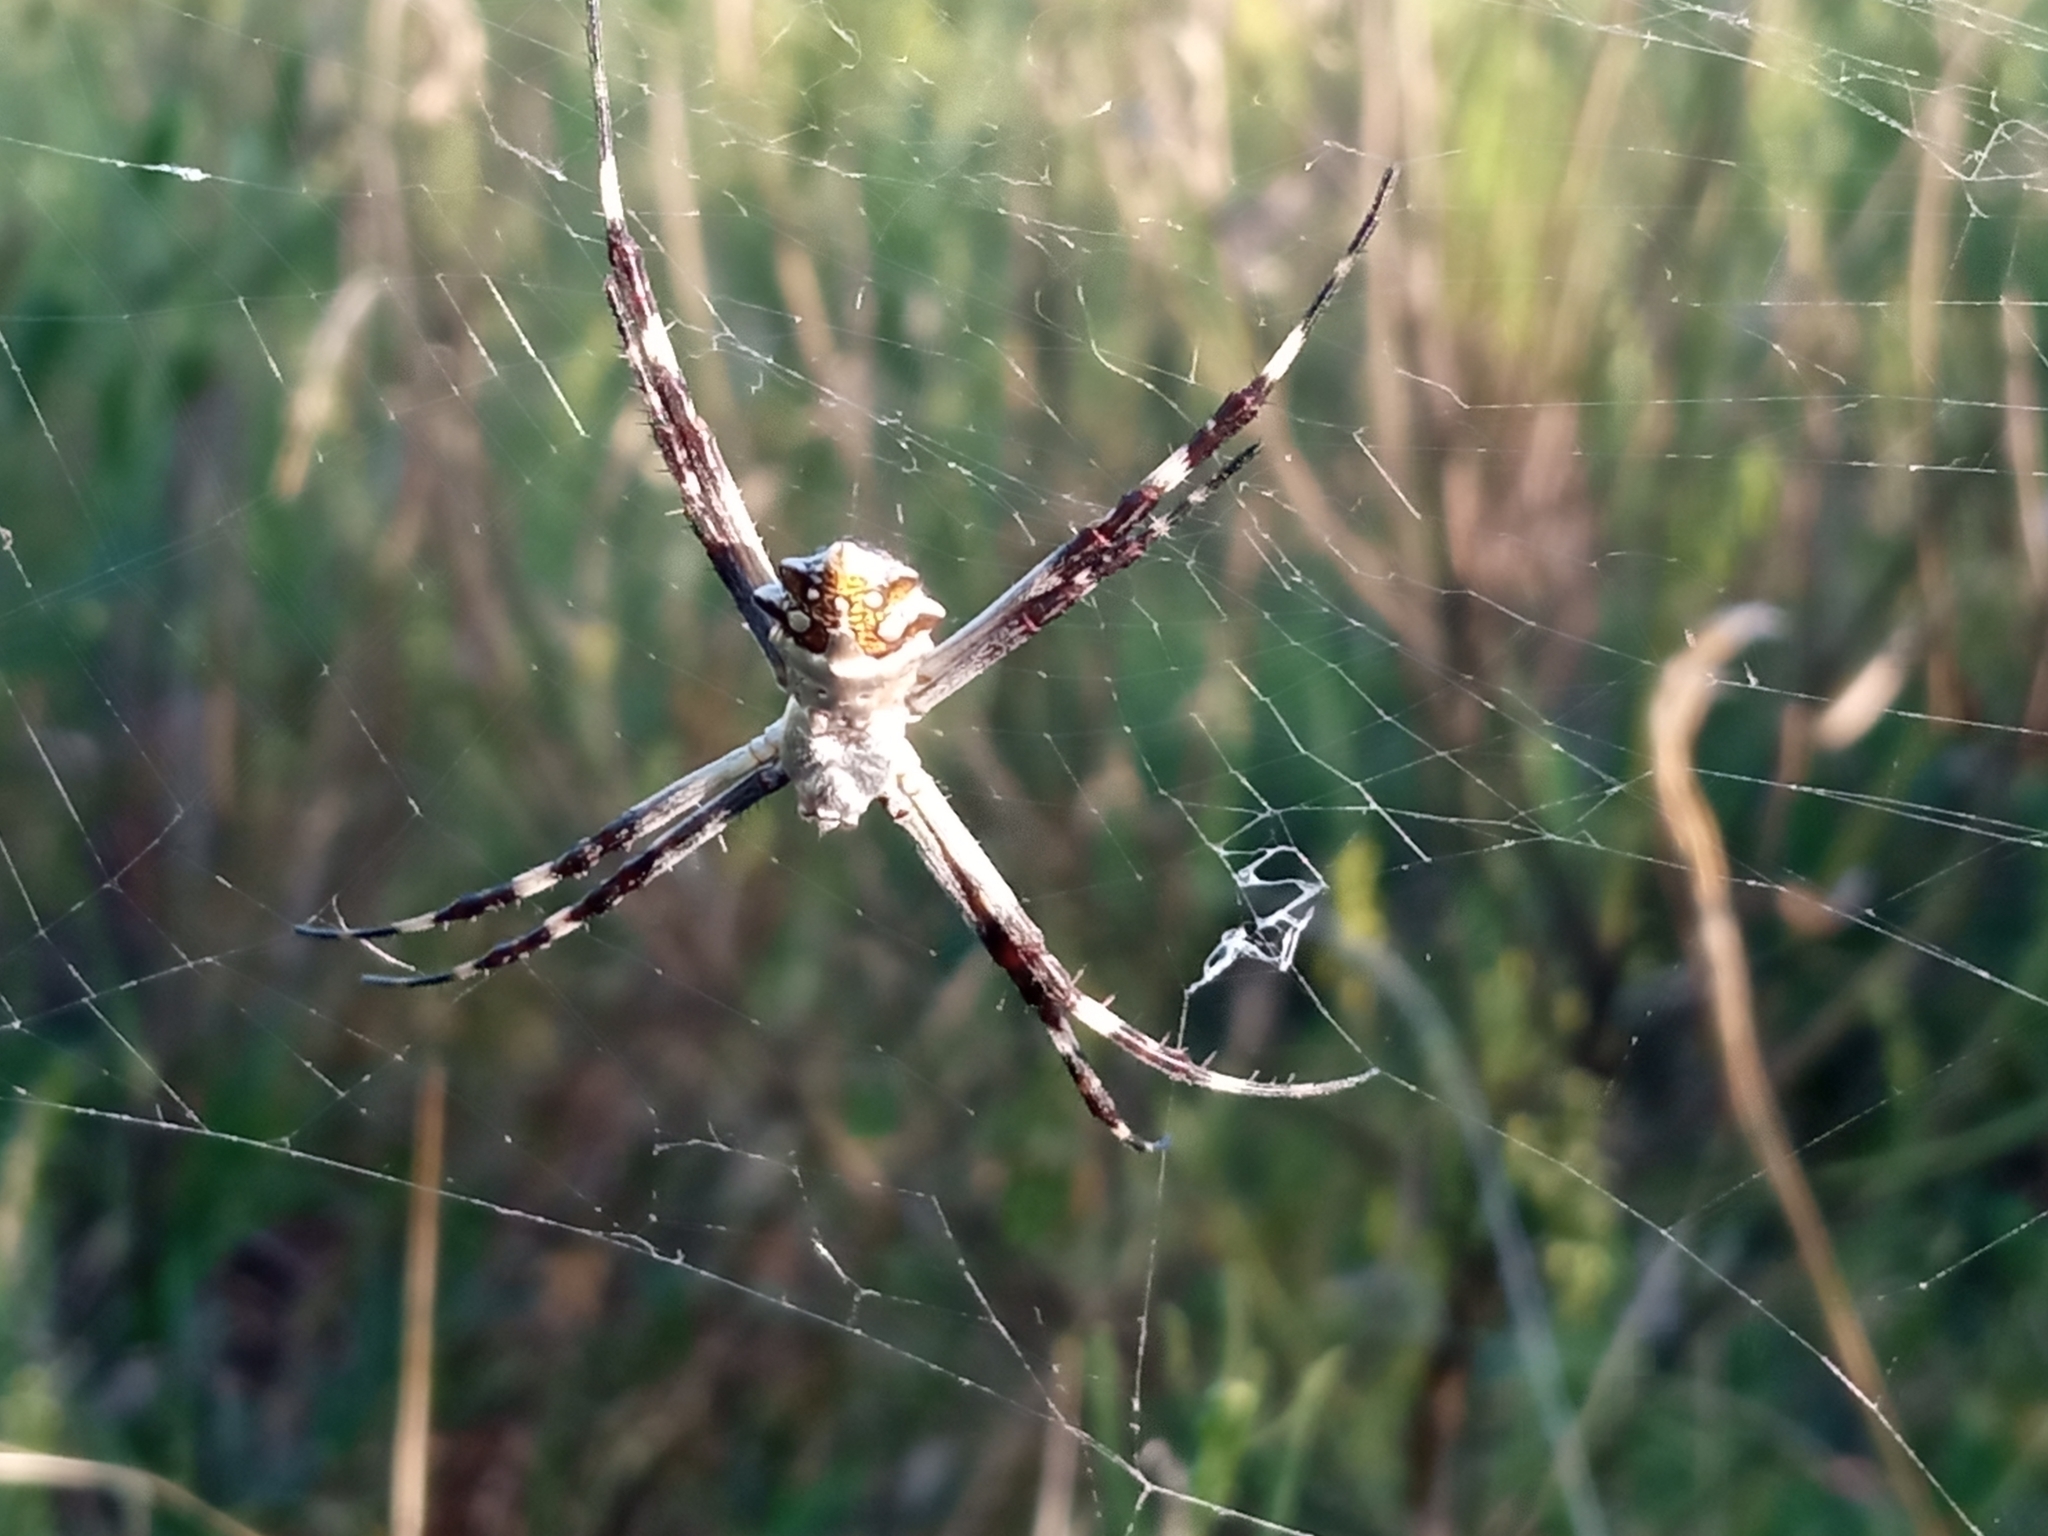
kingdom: Animalia
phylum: Arthropoda
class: Arachnida
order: Araneae
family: Araneidae
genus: Argiope
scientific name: Argiope argentata
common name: Orb weavers
